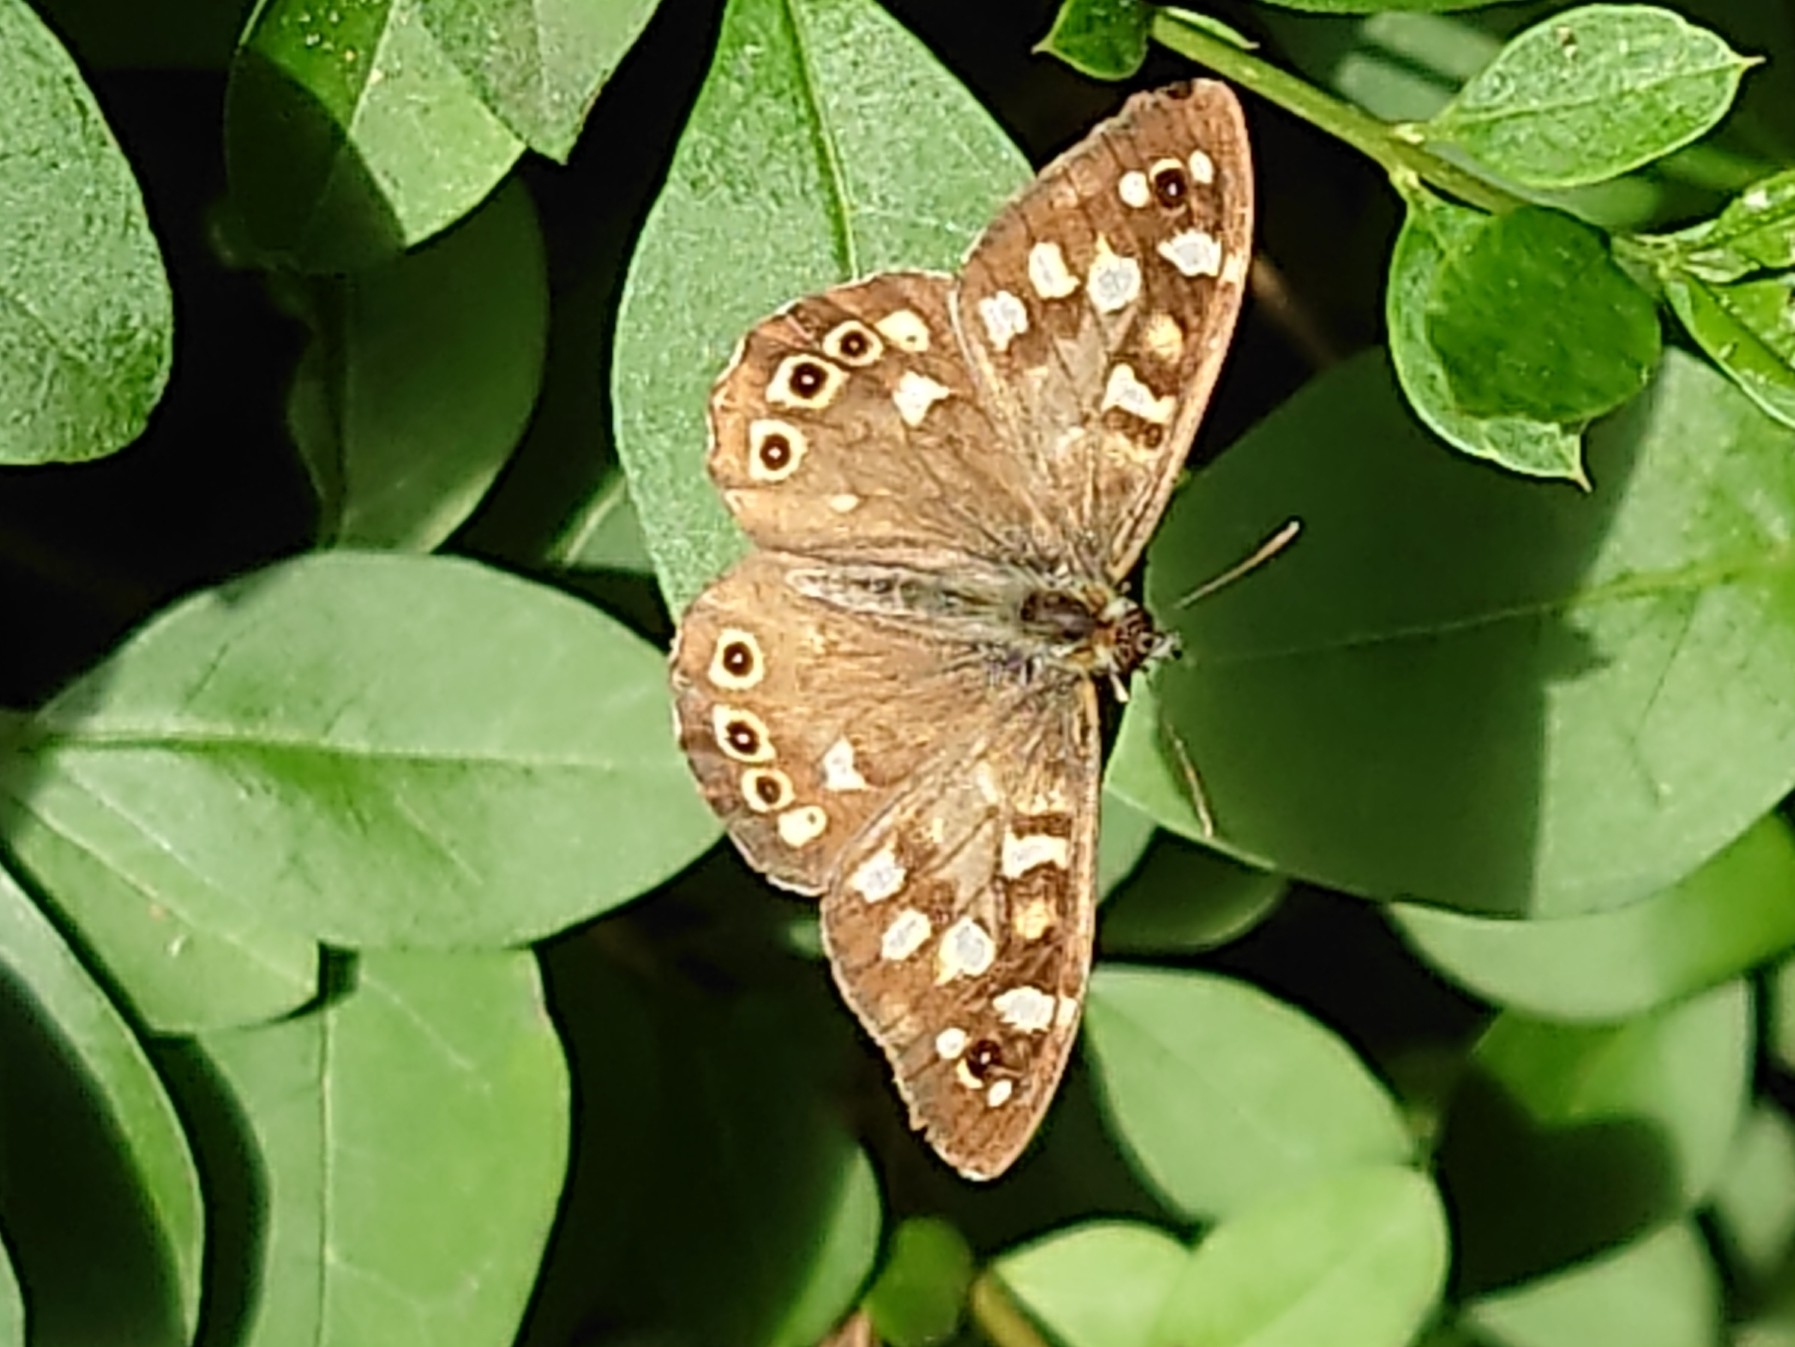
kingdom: Animalia
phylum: Arthropoda
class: Insecta
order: Lepidoptera
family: Nymphalidae
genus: Pararge
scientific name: Pararge aegeria
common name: Speckled wood
